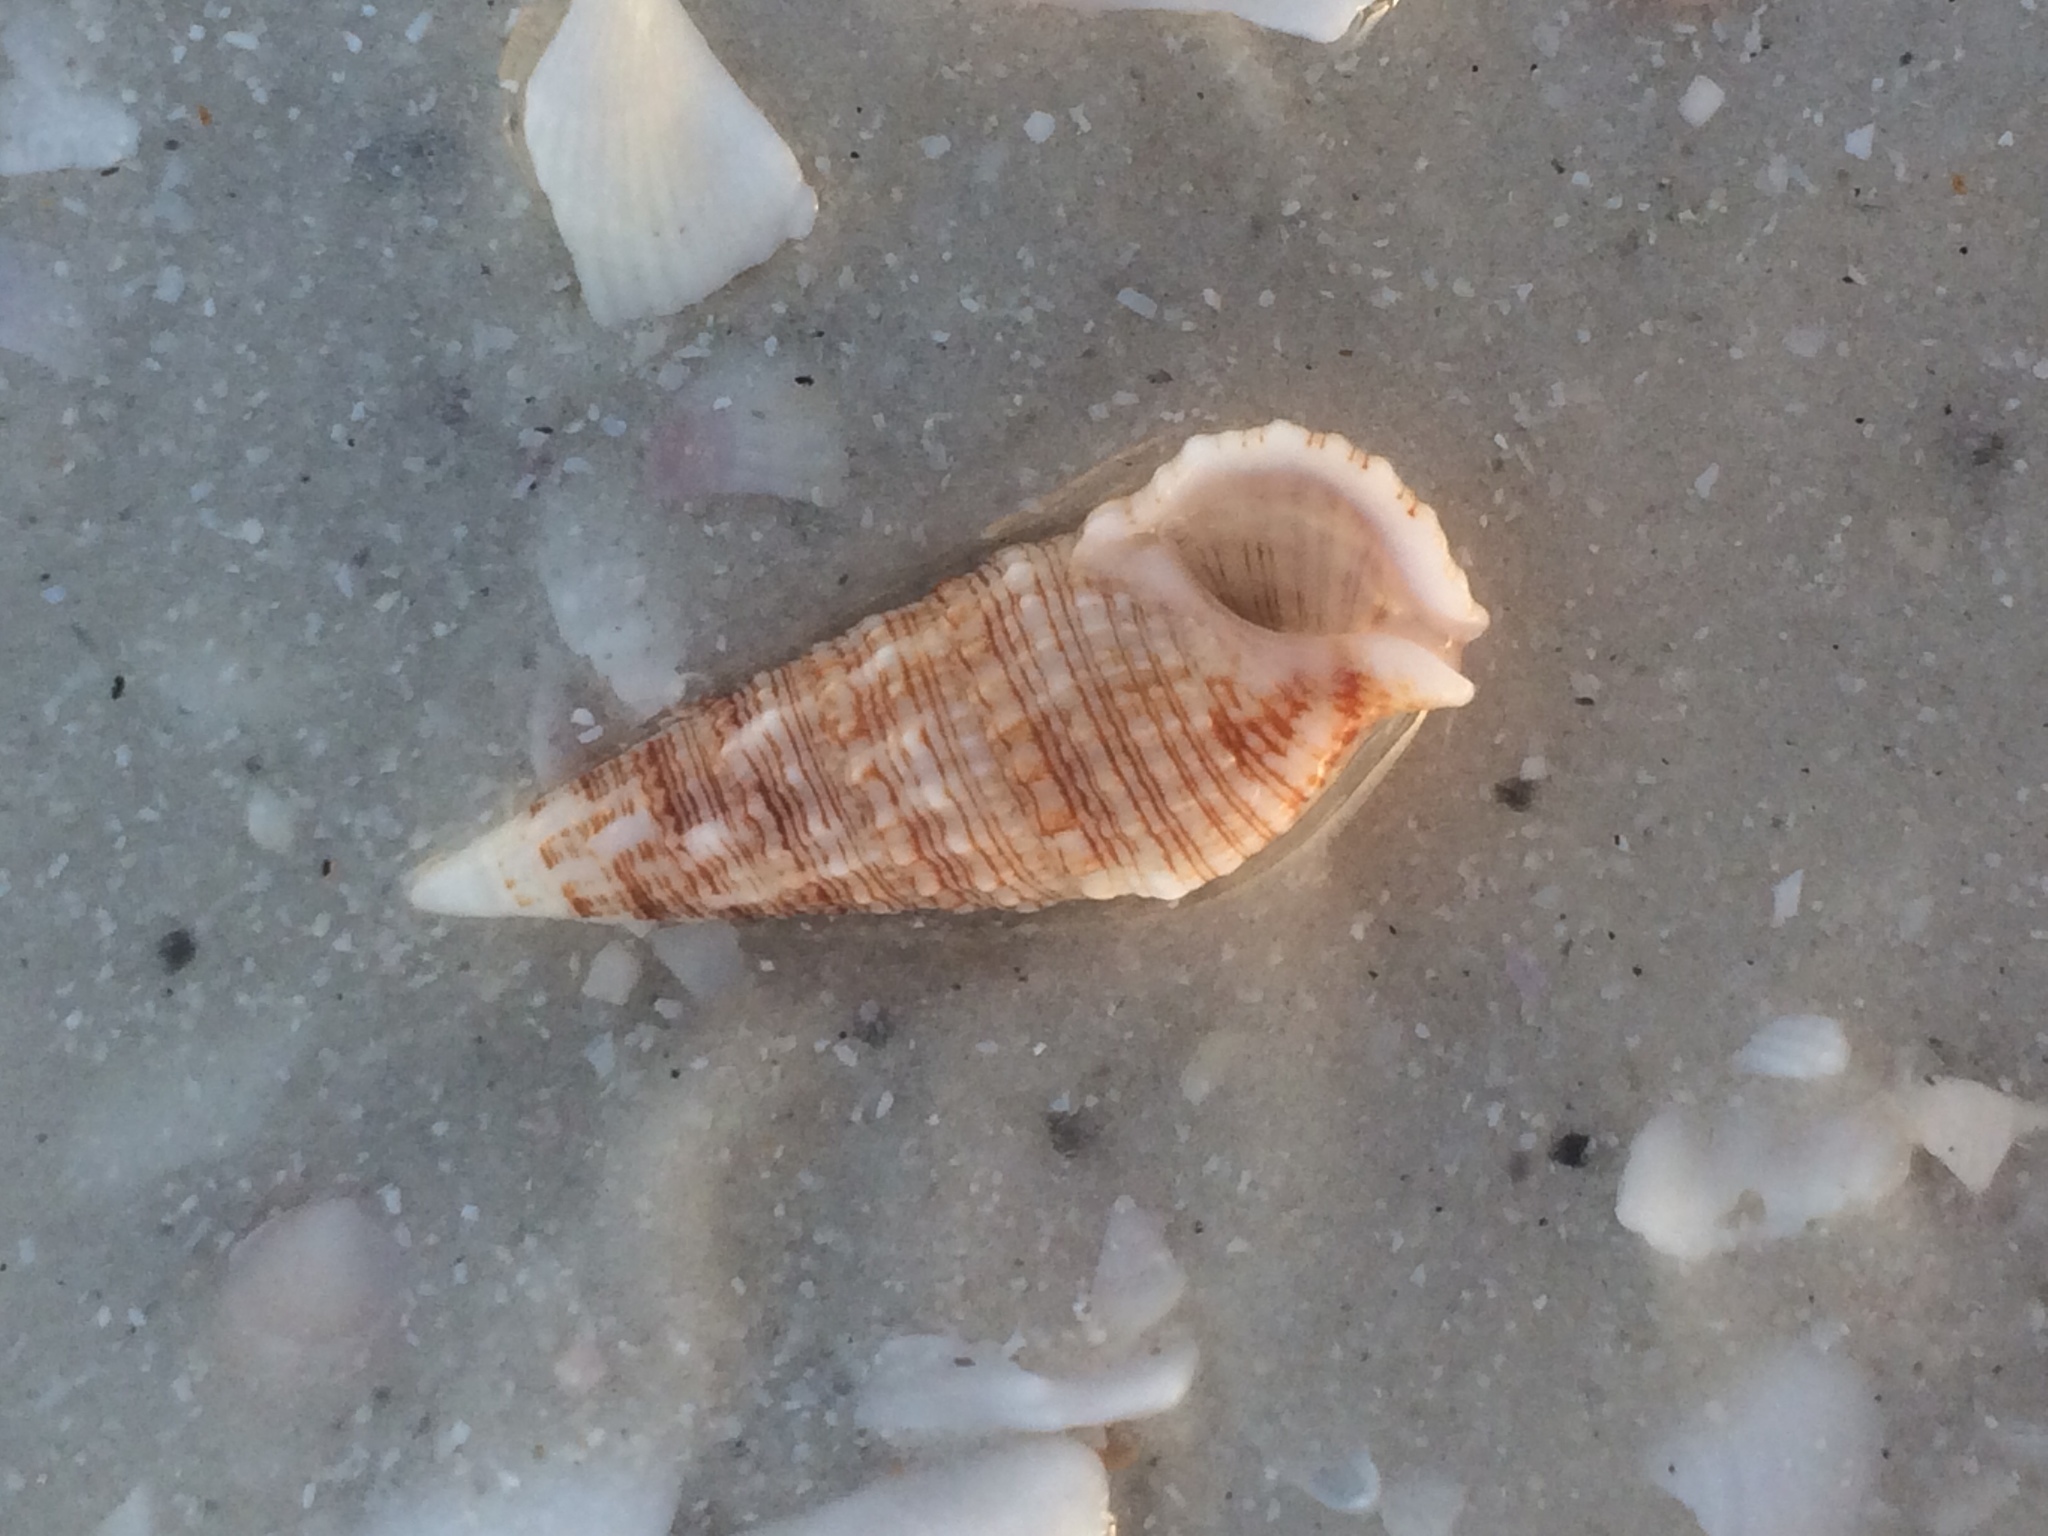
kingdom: Animalia
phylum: Mollusca
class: Gastropoda
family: Cerithiidae
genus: Cerithium
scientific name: Cerithium atratum
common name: Dark cerith
